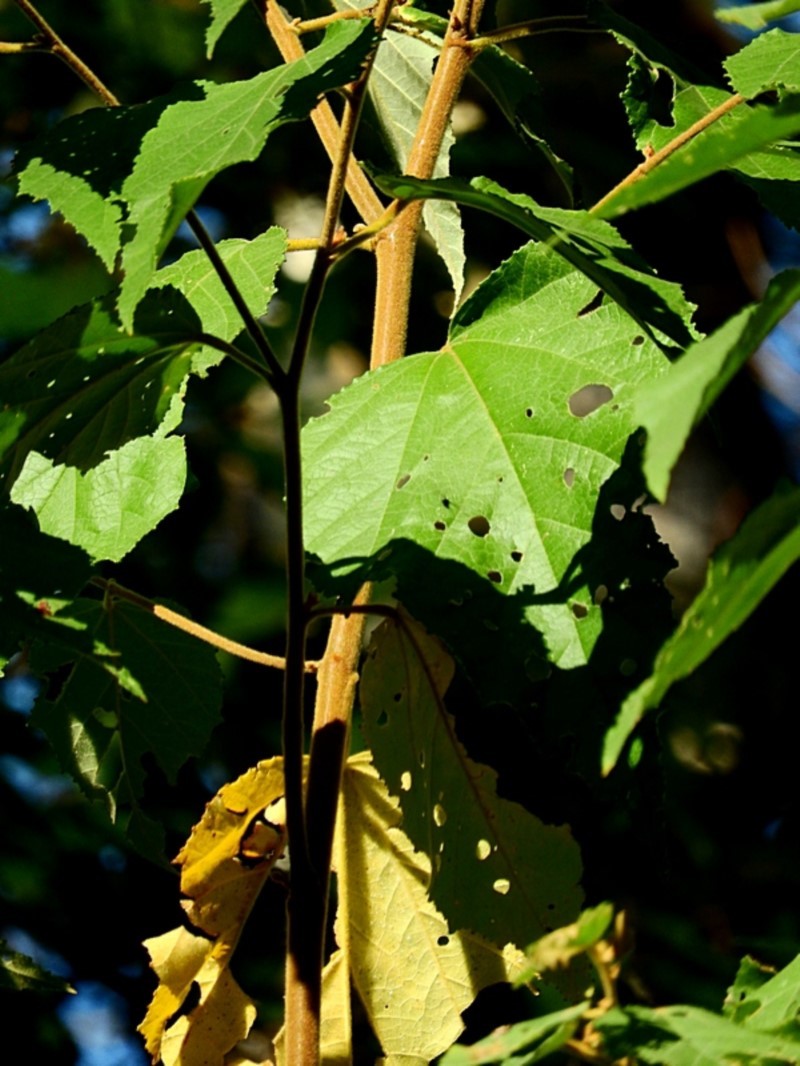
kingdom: Plantae
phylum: Tracheophyta
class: Magnoliopsida
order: Malvales
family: Malvaceae
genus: Androcalva
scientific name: Androcalva rossii
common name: Native hemp
